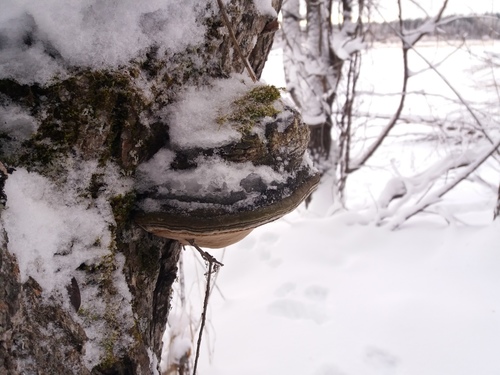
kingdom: Fungi
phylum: Basidiomycota
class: Agaricomycetes
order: Hymenochaetales
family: Hymenochaetaceae
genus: Phellinus
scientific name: Phellinus igniarius
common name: Willow bracket
